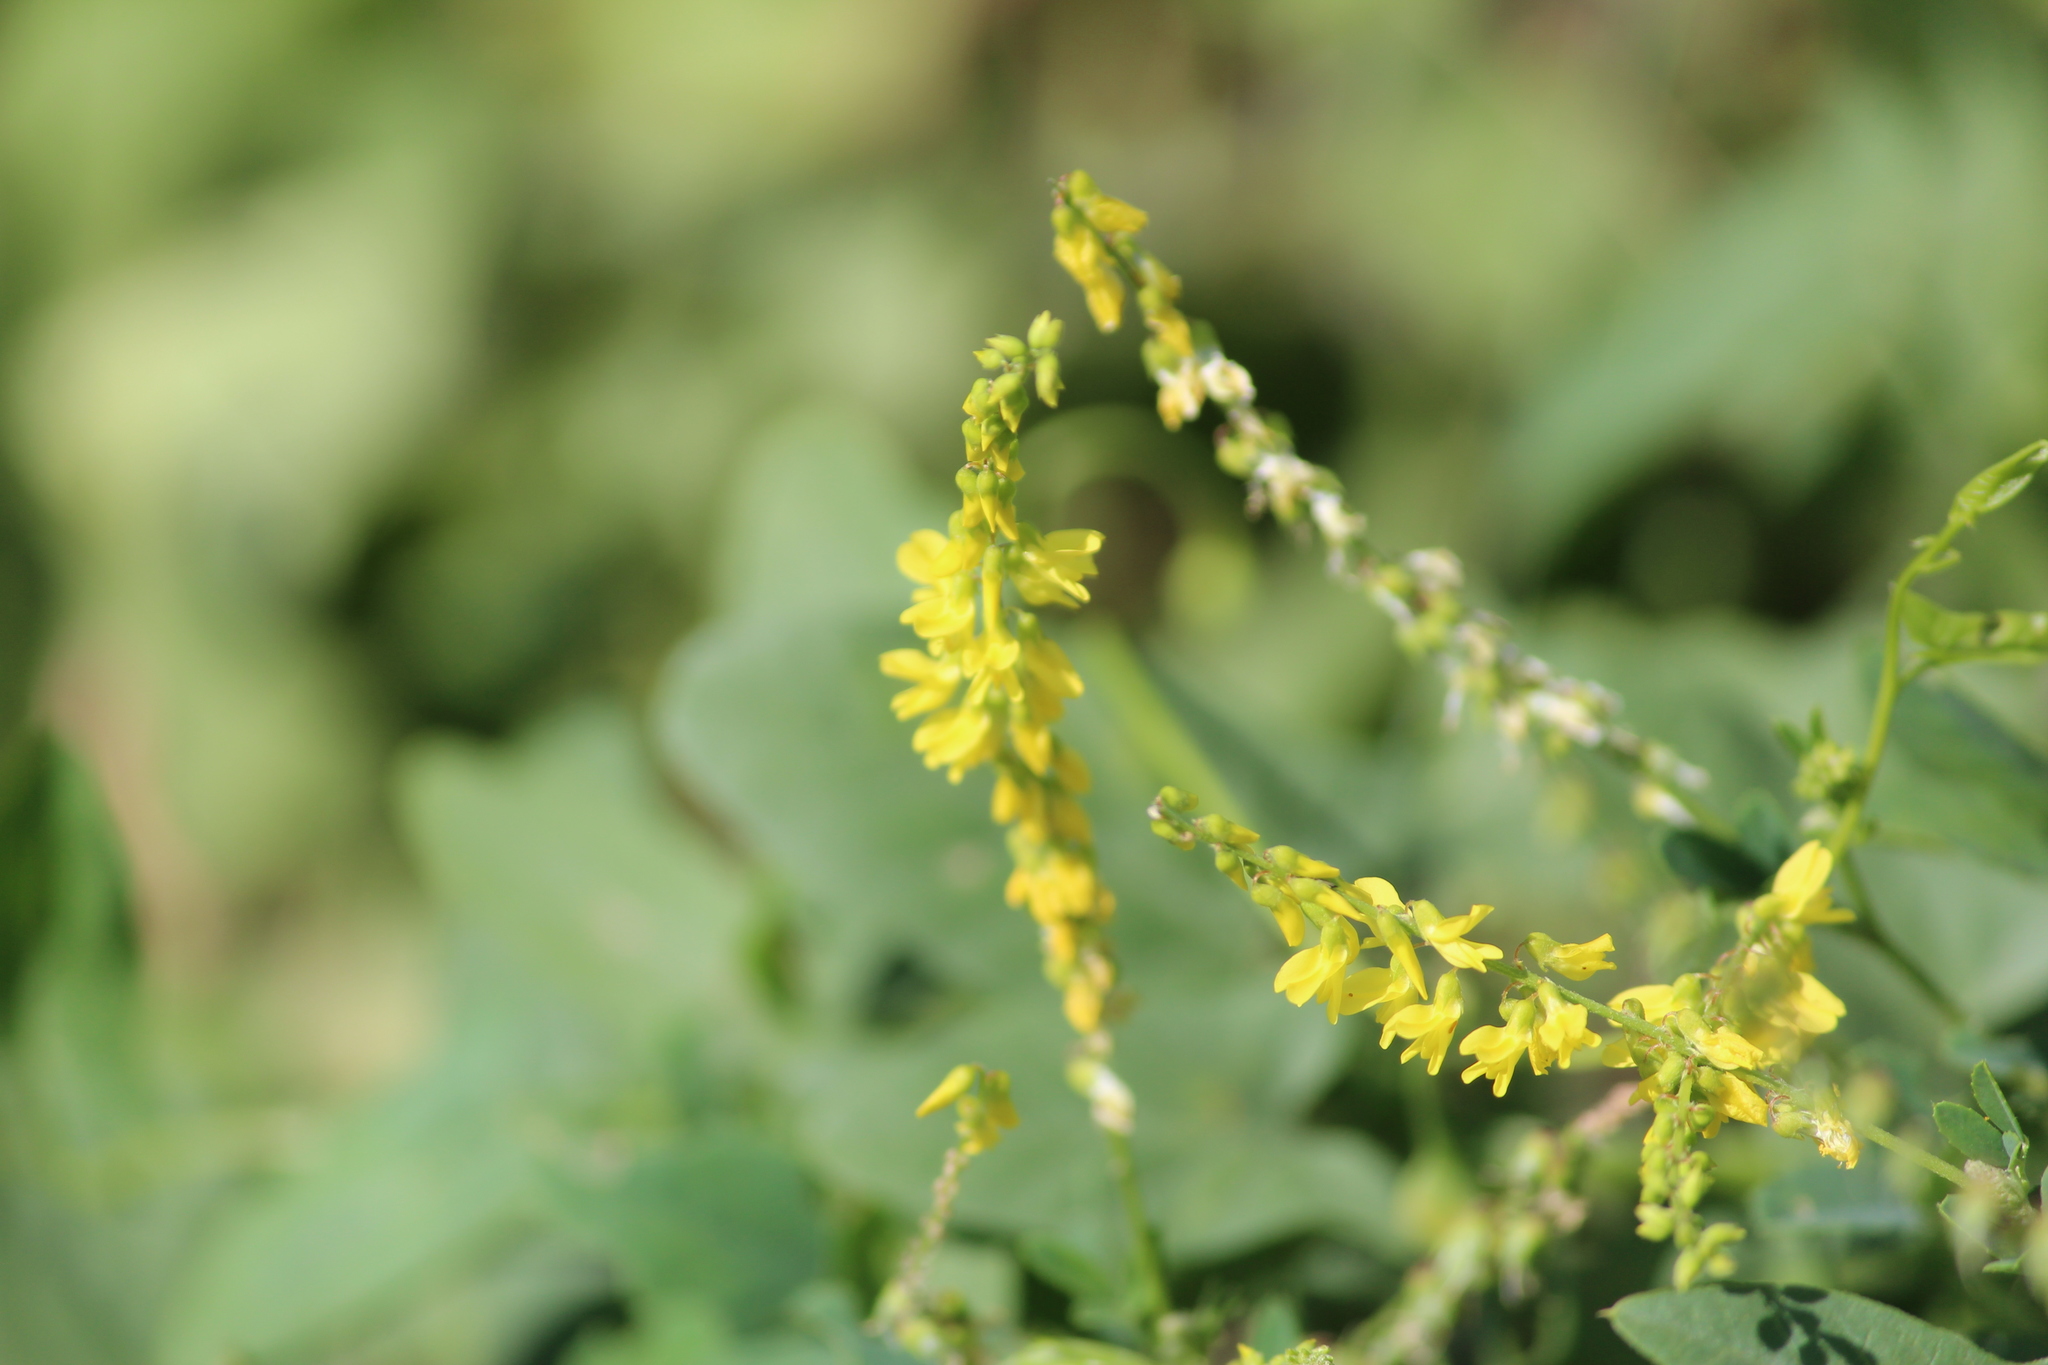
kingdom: Plantae
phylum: Tracheophyta
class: Magnoliopsida
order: Fabales
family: Fabaceae
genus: Melilotus
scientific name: Melilotus officinalis
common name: Sweetclover
